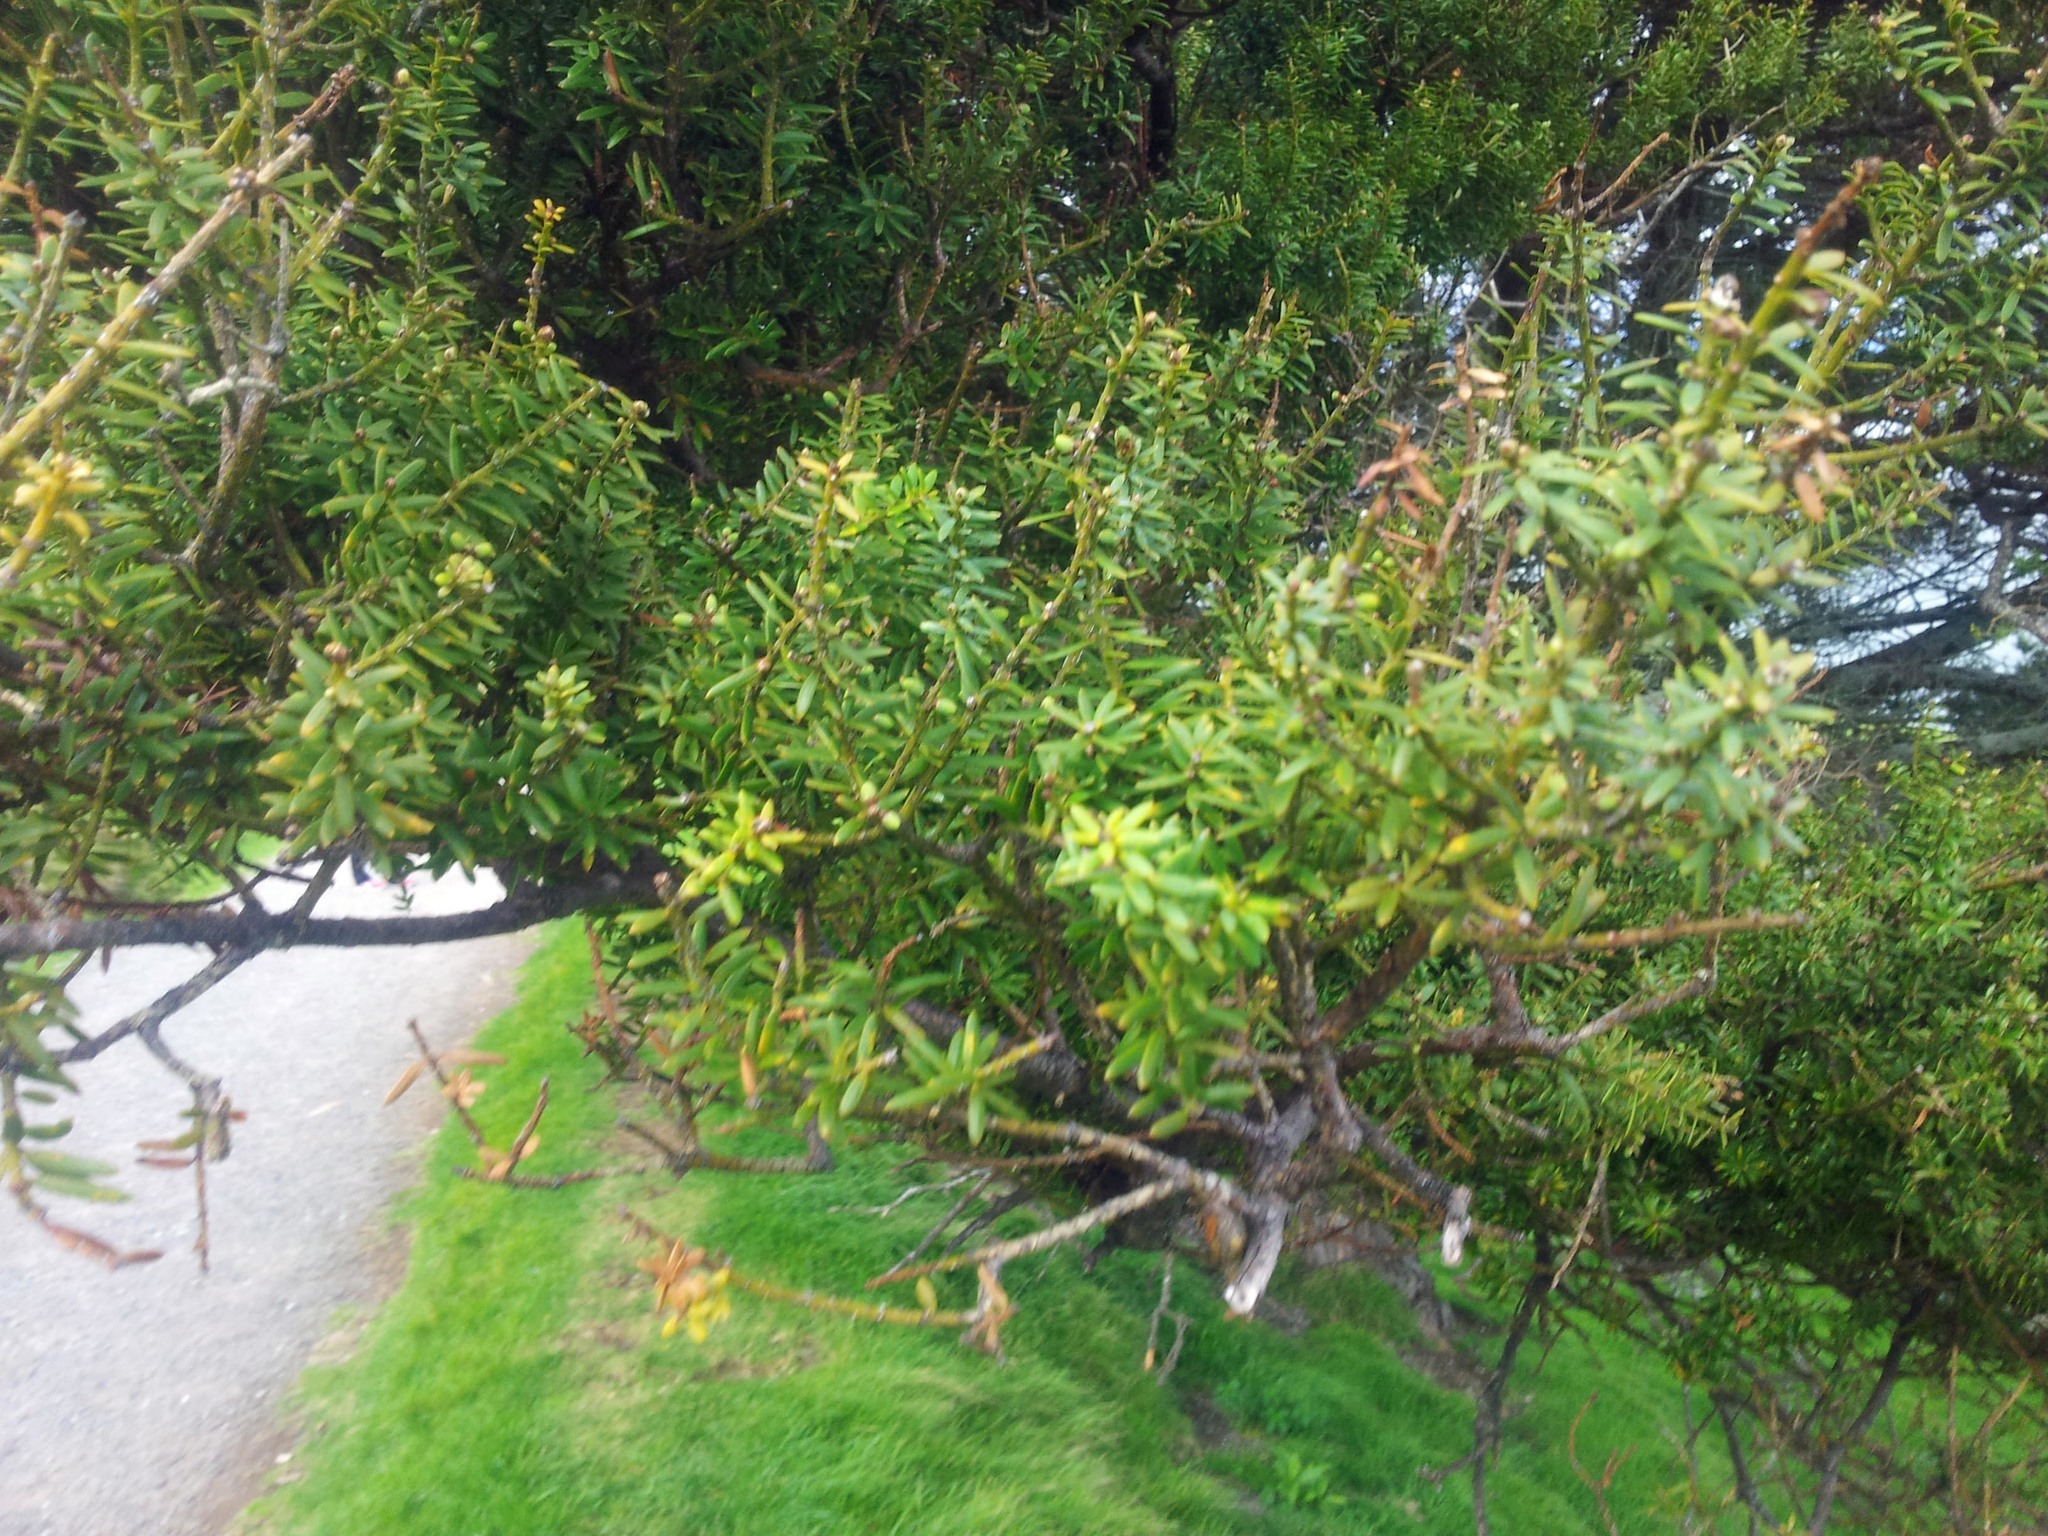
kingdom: Plantae
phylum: Tracheophyta
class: Pinopsida
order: Pinales
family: Podocarpaceae
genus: Podocarpus
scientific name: Podocarpus totara
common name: Totara
